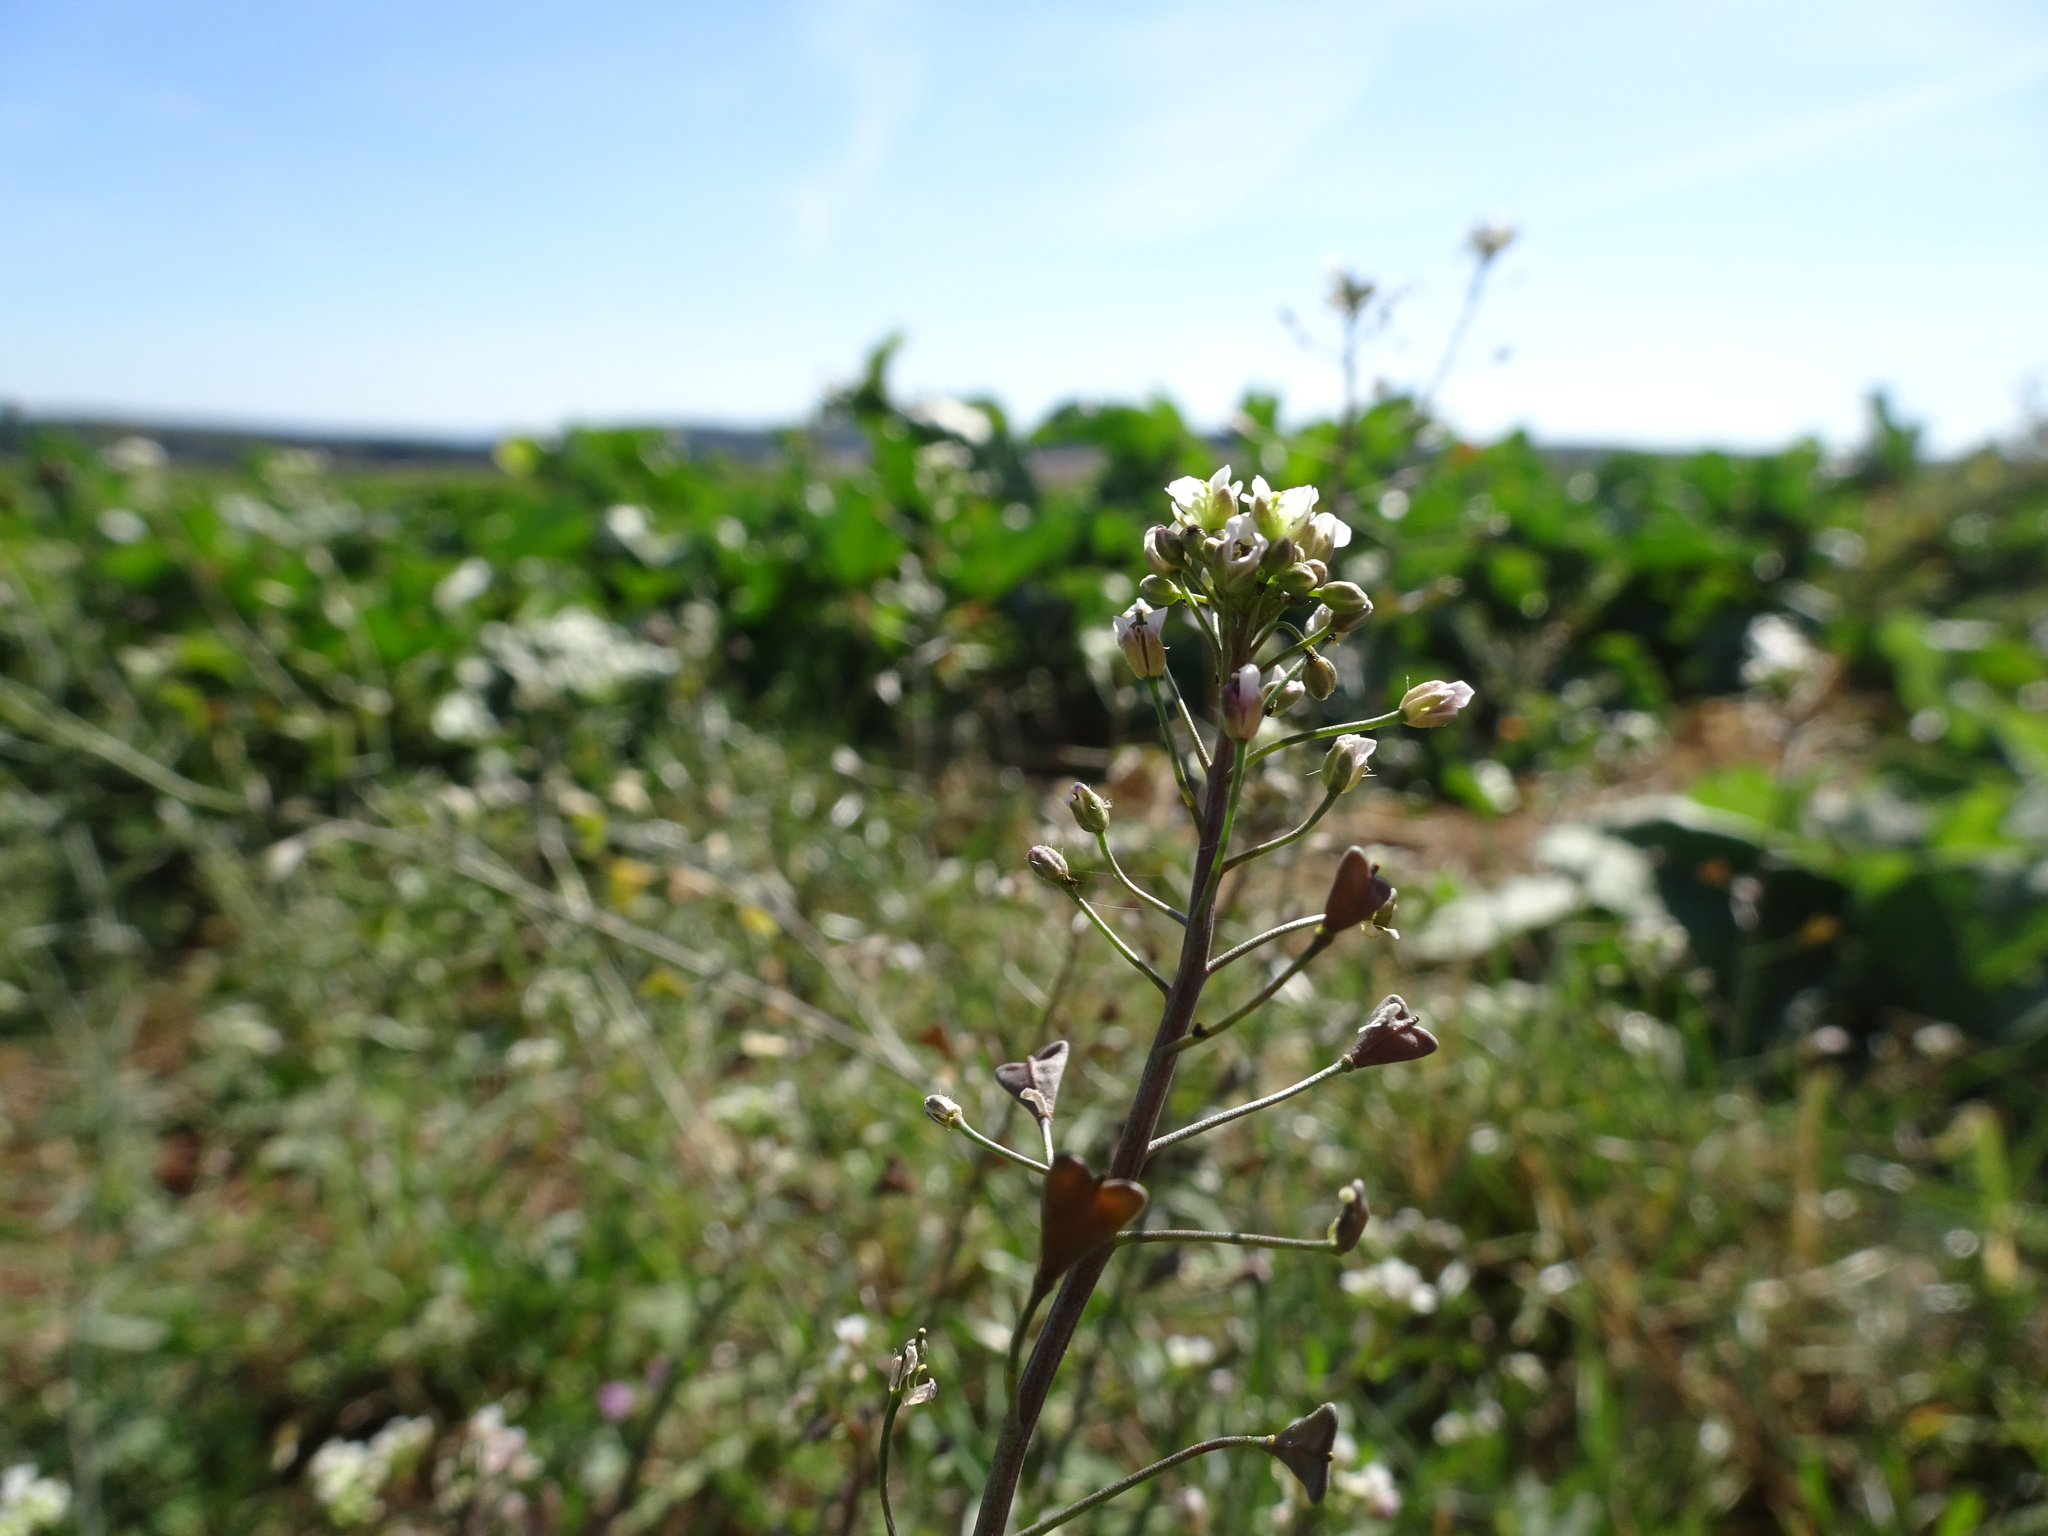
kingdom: Plantae
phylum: Tracheophyta
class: Magnoliopsida
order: Brassicales
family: Brassicaceae
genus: Capsella
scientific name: Capsella bursa-pastoris
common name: Shepherd's purse
